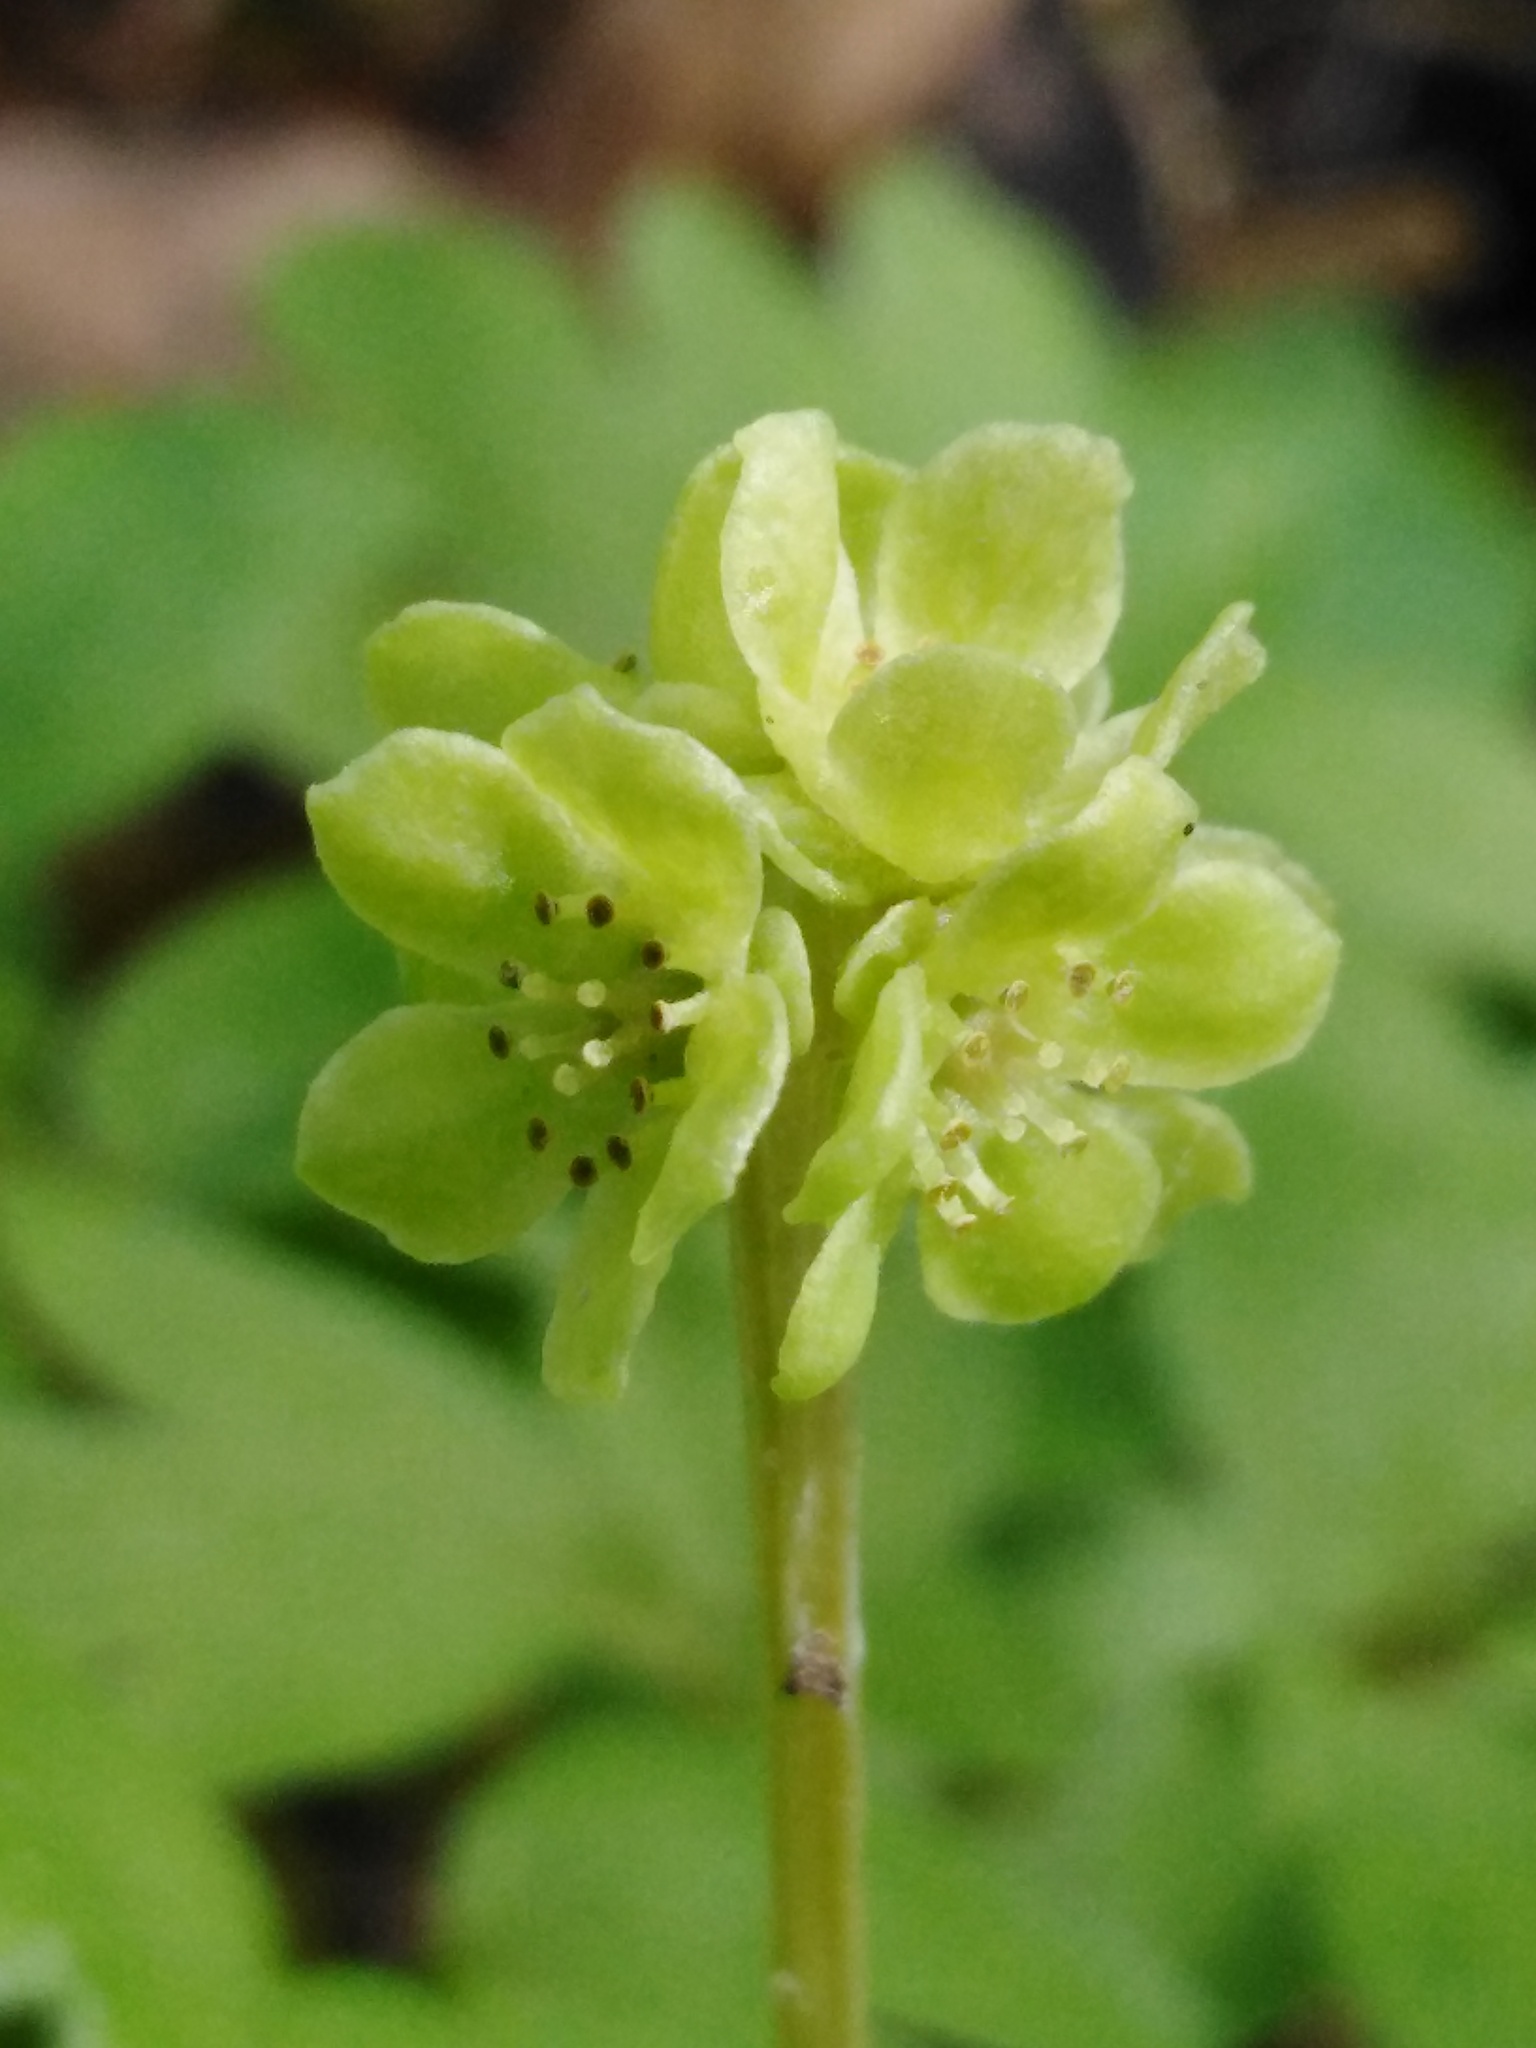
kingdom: Plantae
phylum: Tracheophyta
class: Magnoliopsida
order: Dipsacales
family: Viburnaceae
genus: Adoxa
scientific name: Adoxa moschatellina
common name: Moschatel
